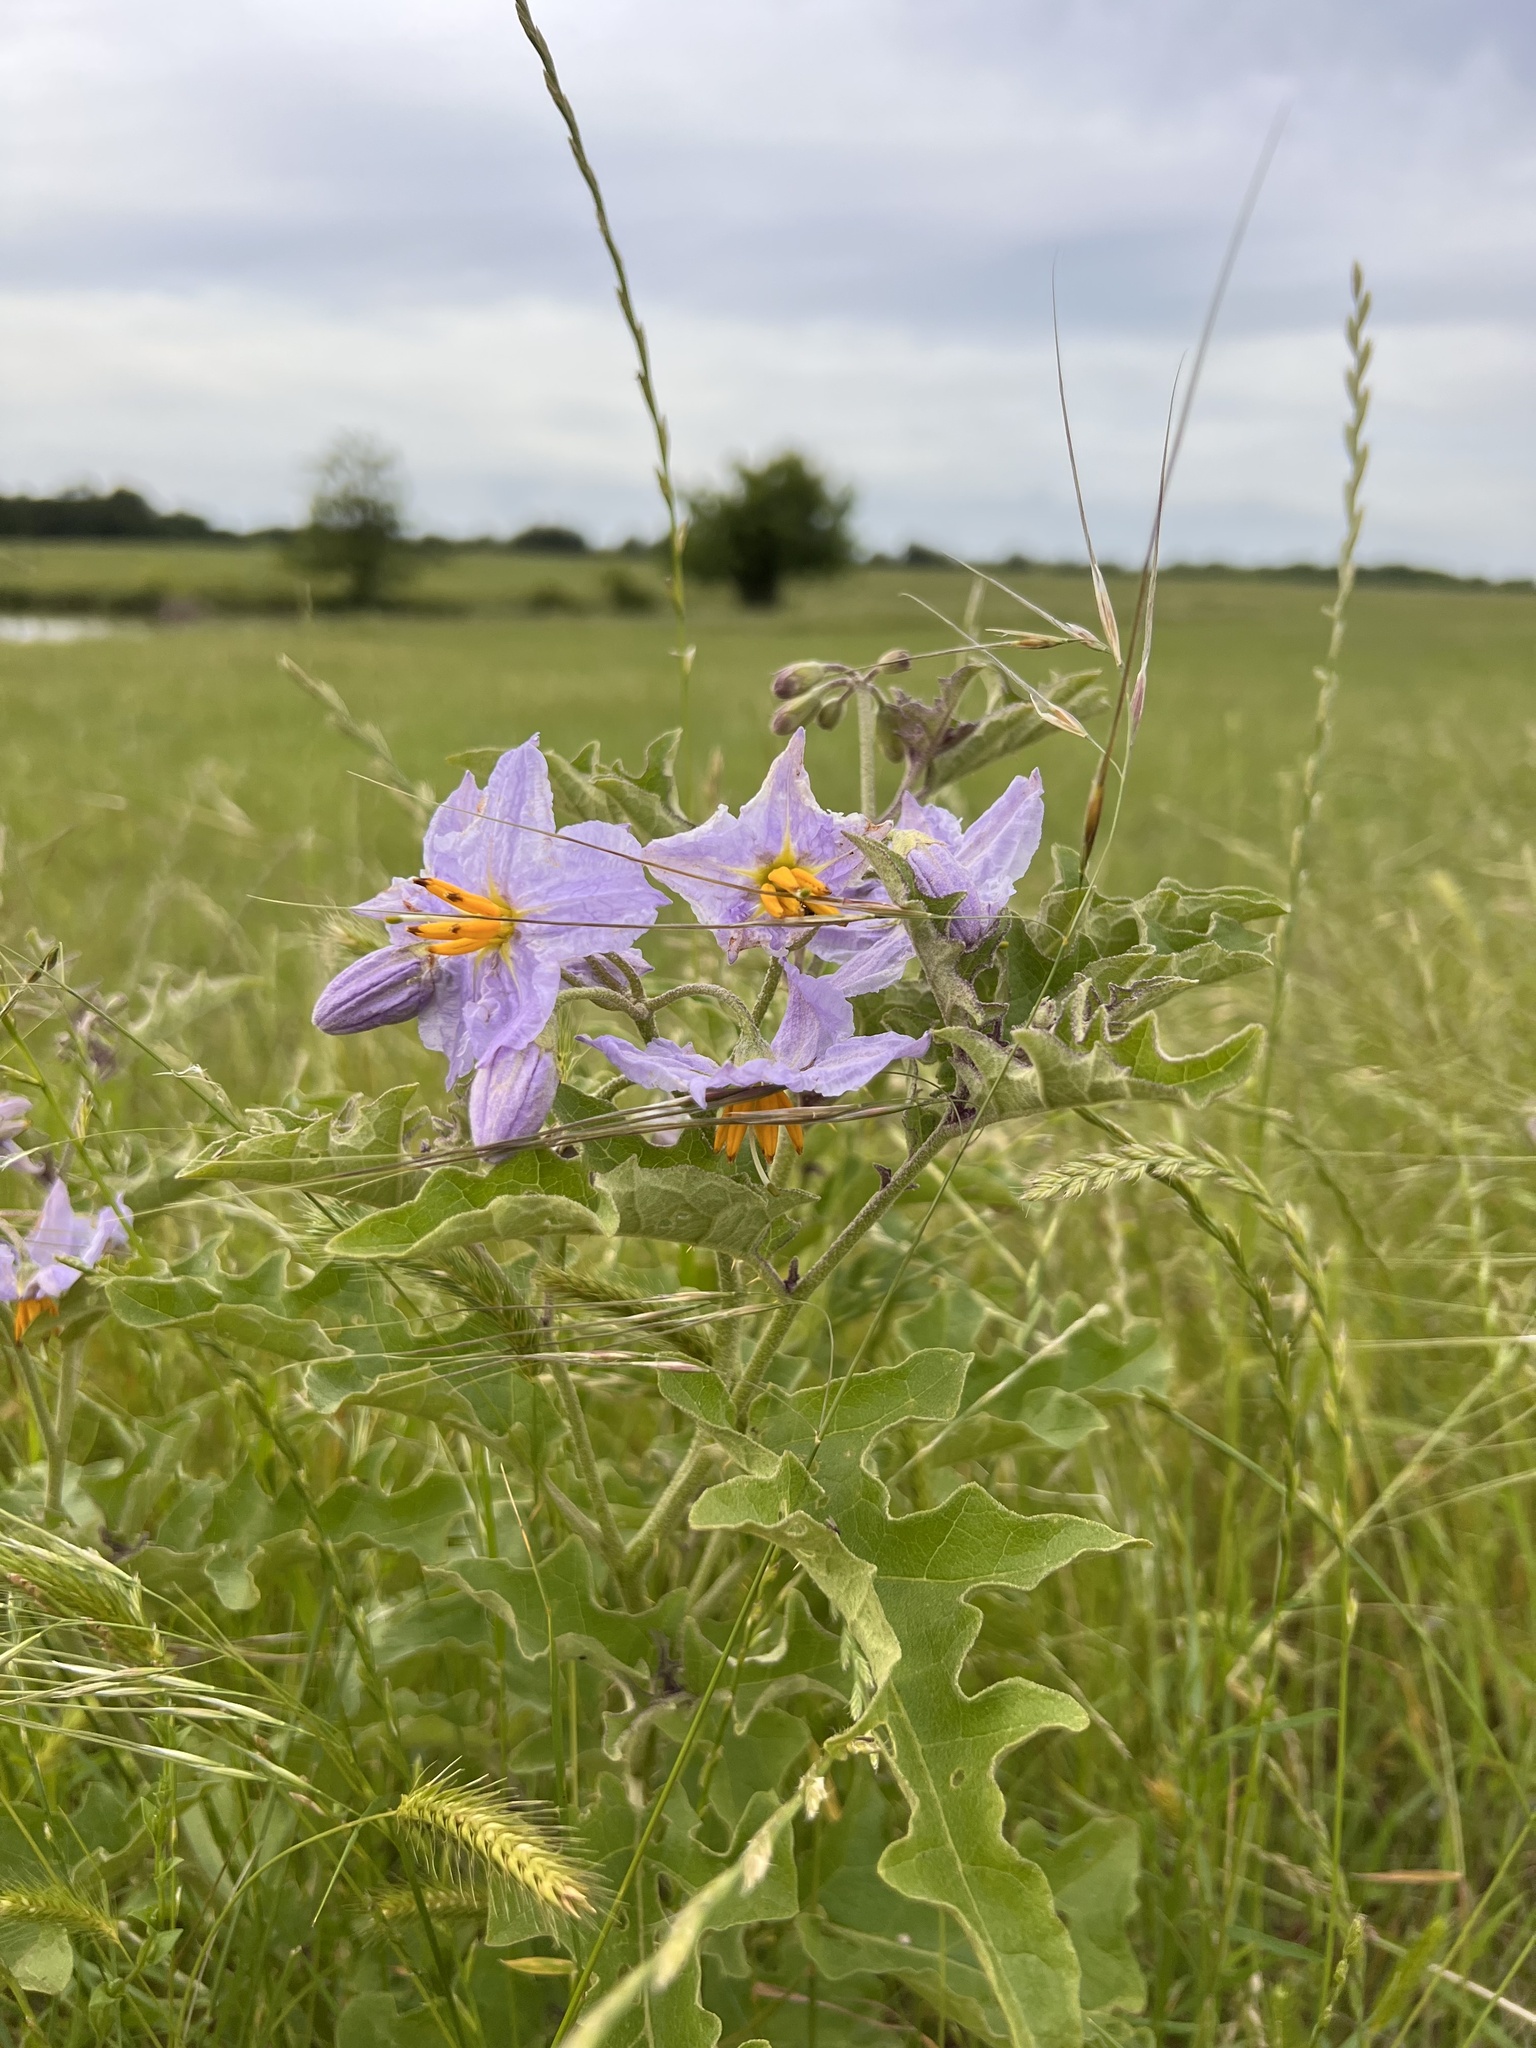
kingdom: Plantae
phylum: Tracheophyta
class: Magnoliopsida
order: Solanales
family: Solanaceae
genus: Solanum
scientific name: Solanum dimidiatum
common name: Carolina horse-nettle
